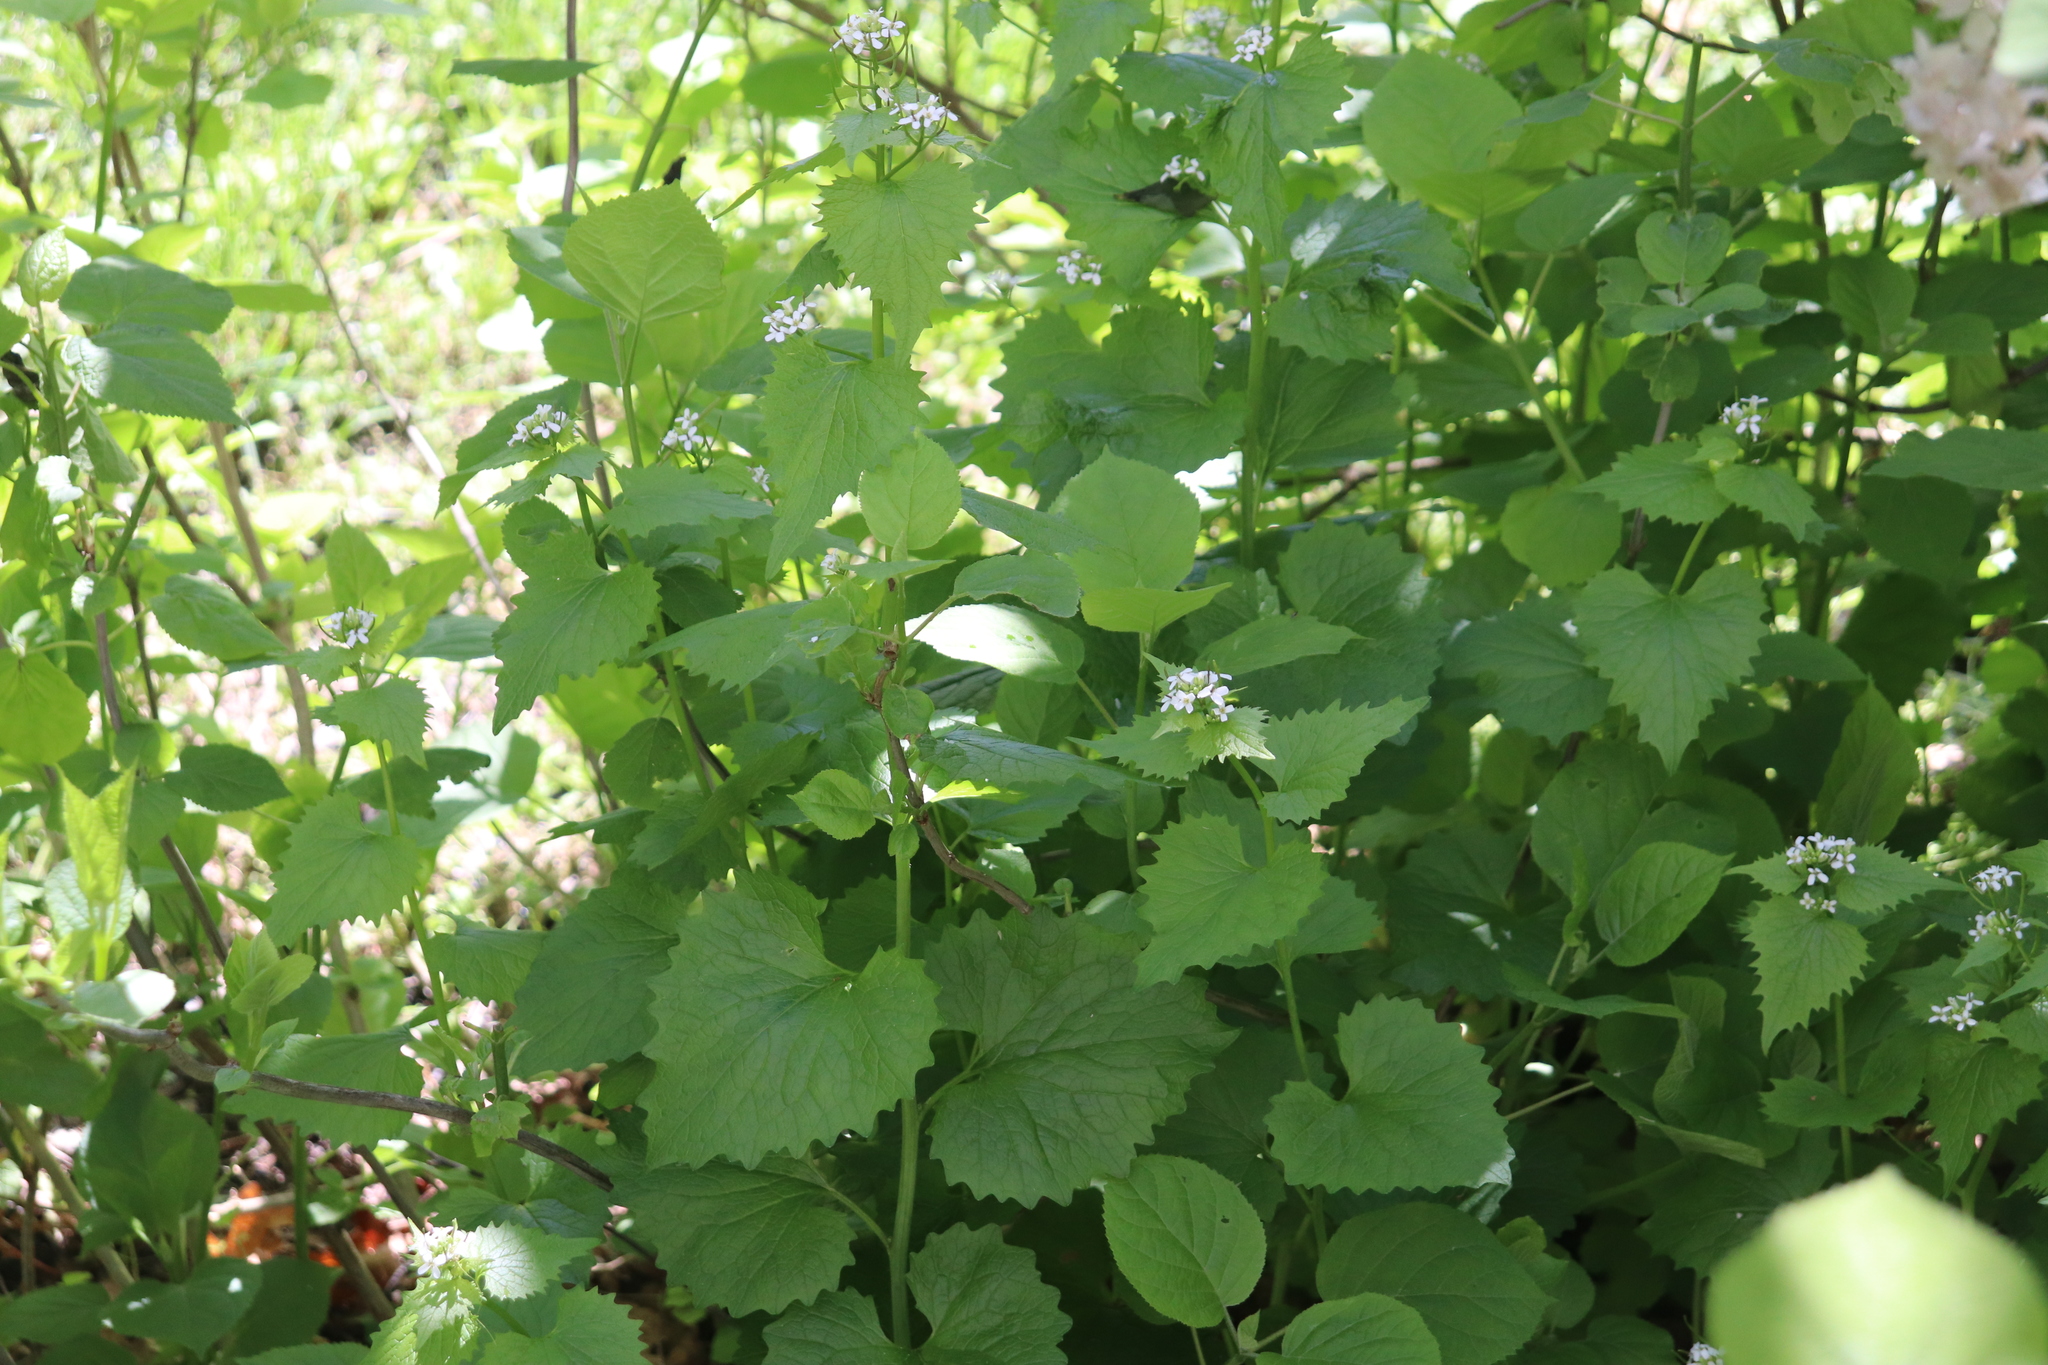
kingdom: Plantae
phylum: Tracheophyta
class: Magnoliopsida
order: Brassicales
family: Brassicaceae
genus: Alliaria
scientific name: Alliaria petiolata
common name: Garlic mustard
